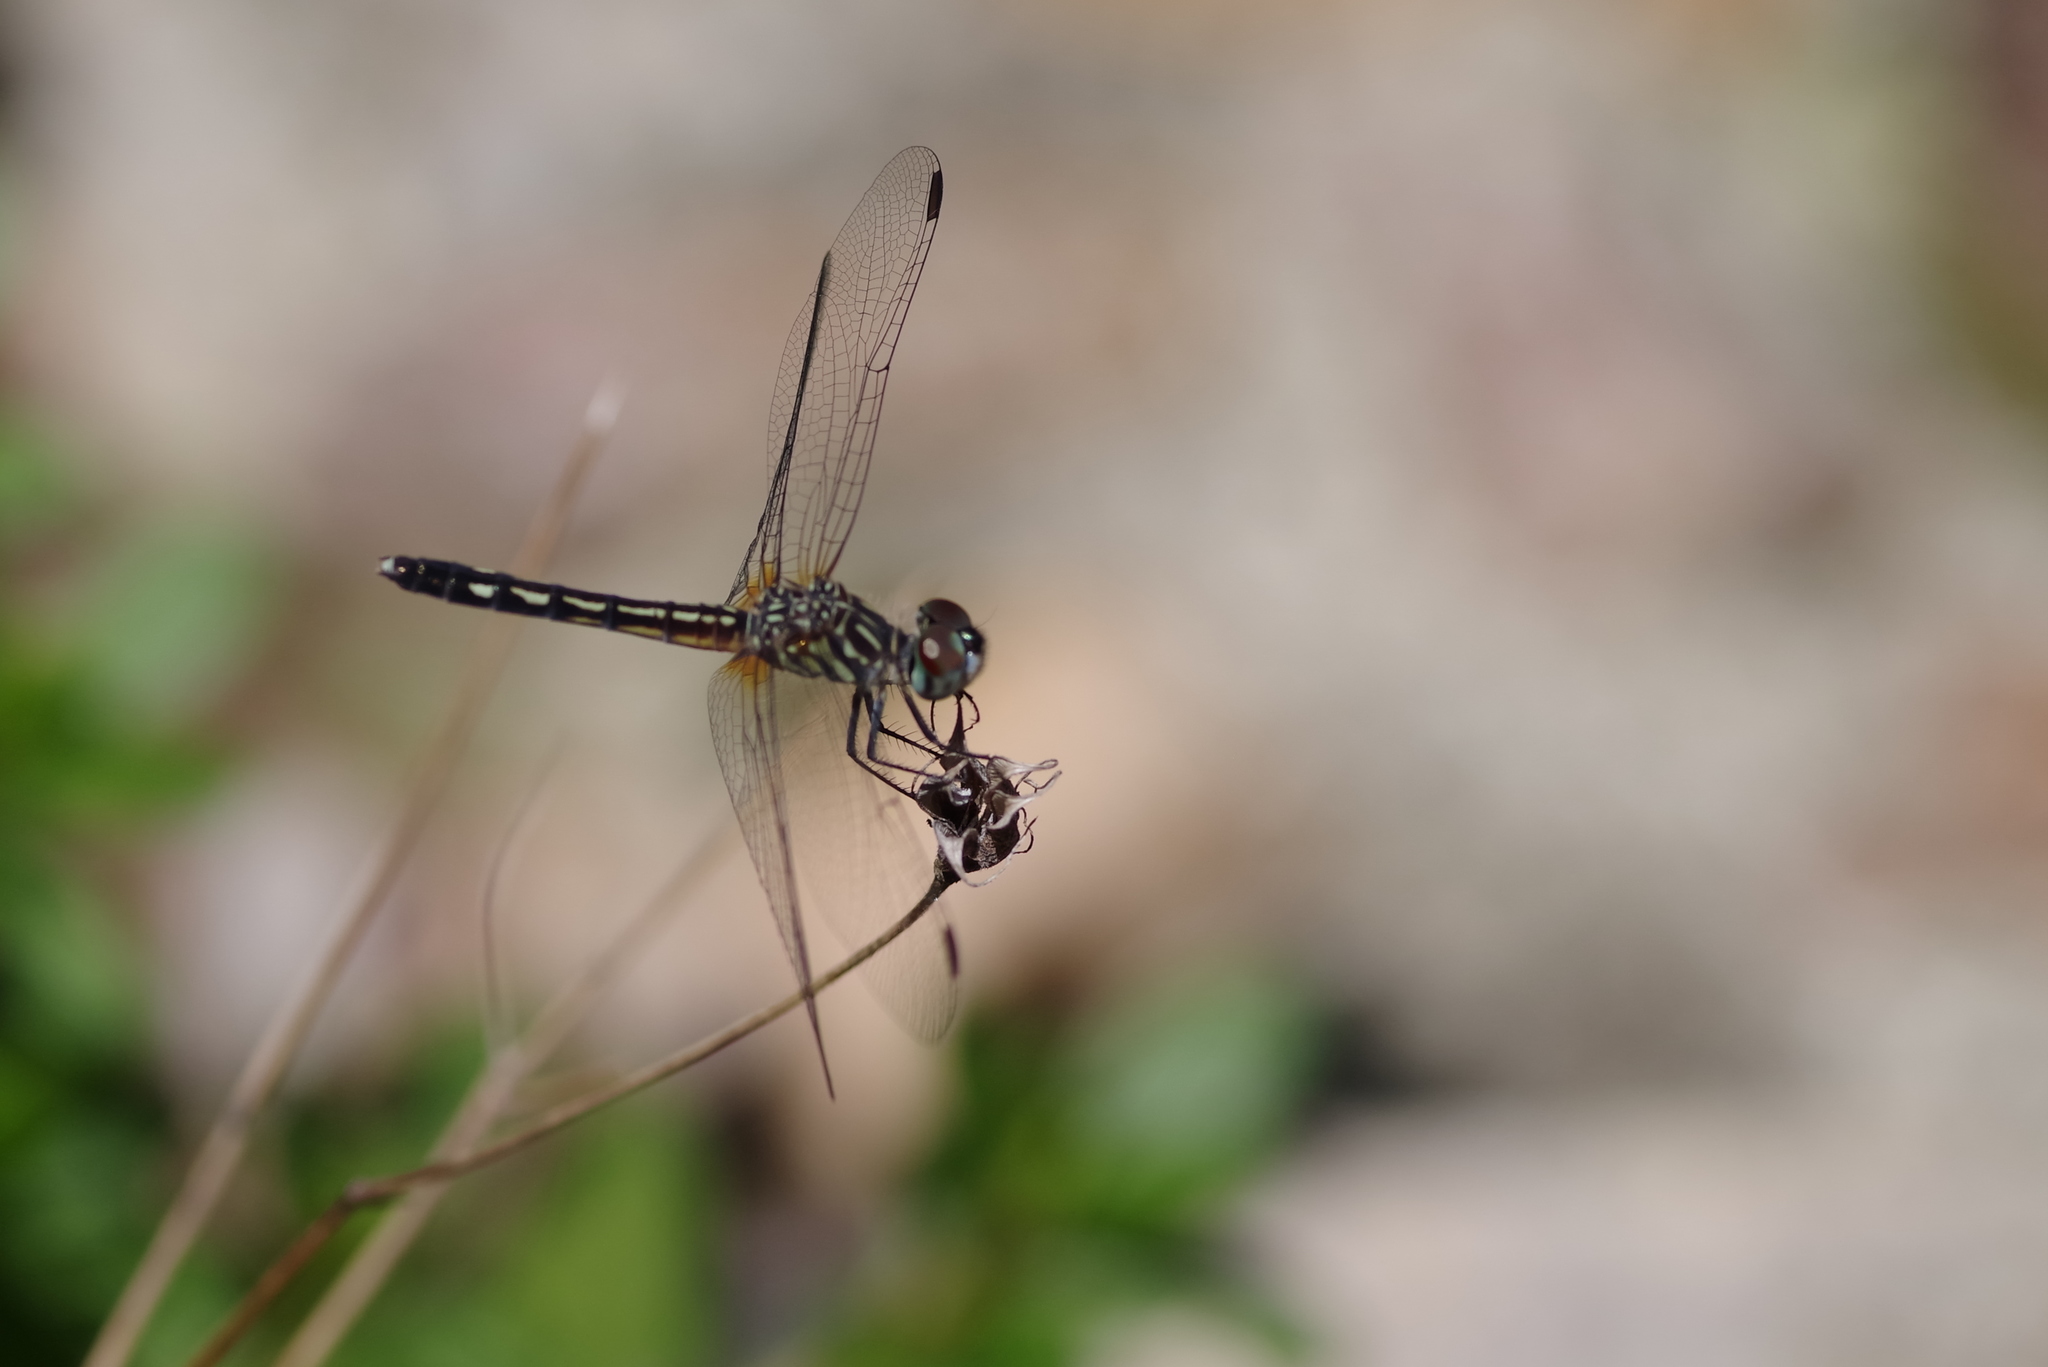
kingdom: Animalia
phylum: Arthropoda
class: Insecta
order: Odonata
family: Libellulidae
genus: Pachydiplax
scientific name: Pachydiplax longipennis
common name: Blue dasher
